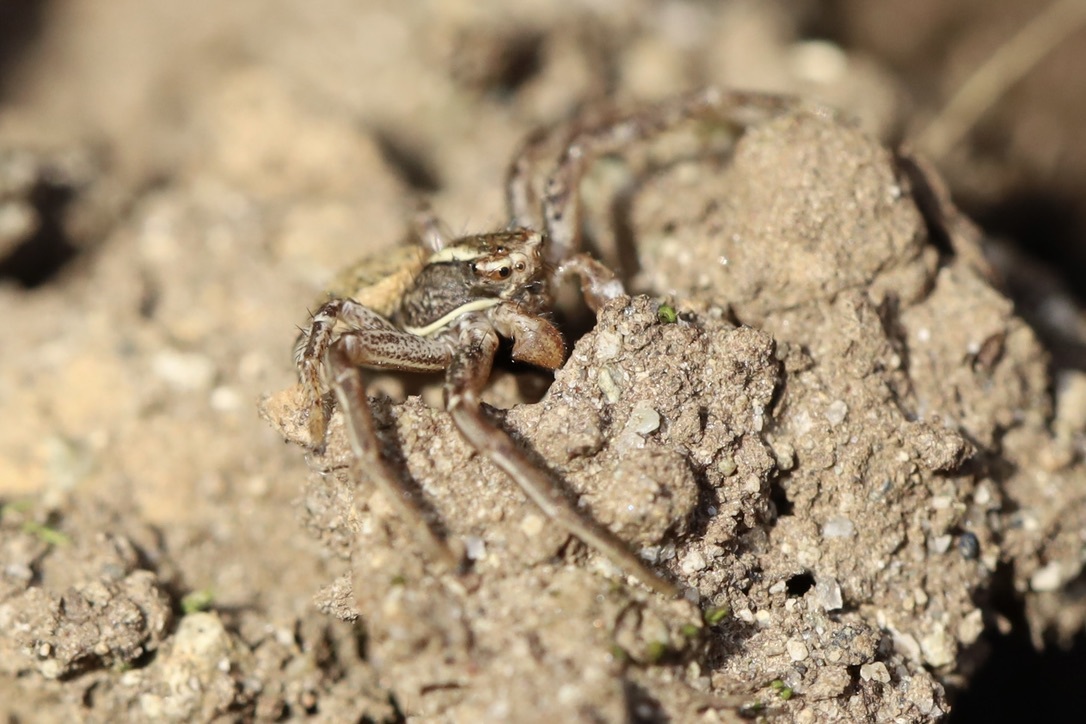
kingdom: Animalia
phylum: Arthropoda
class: Arachnida
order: Araneae
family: Thomisidae
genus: Xysticus
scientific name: Xysticus cristatus
